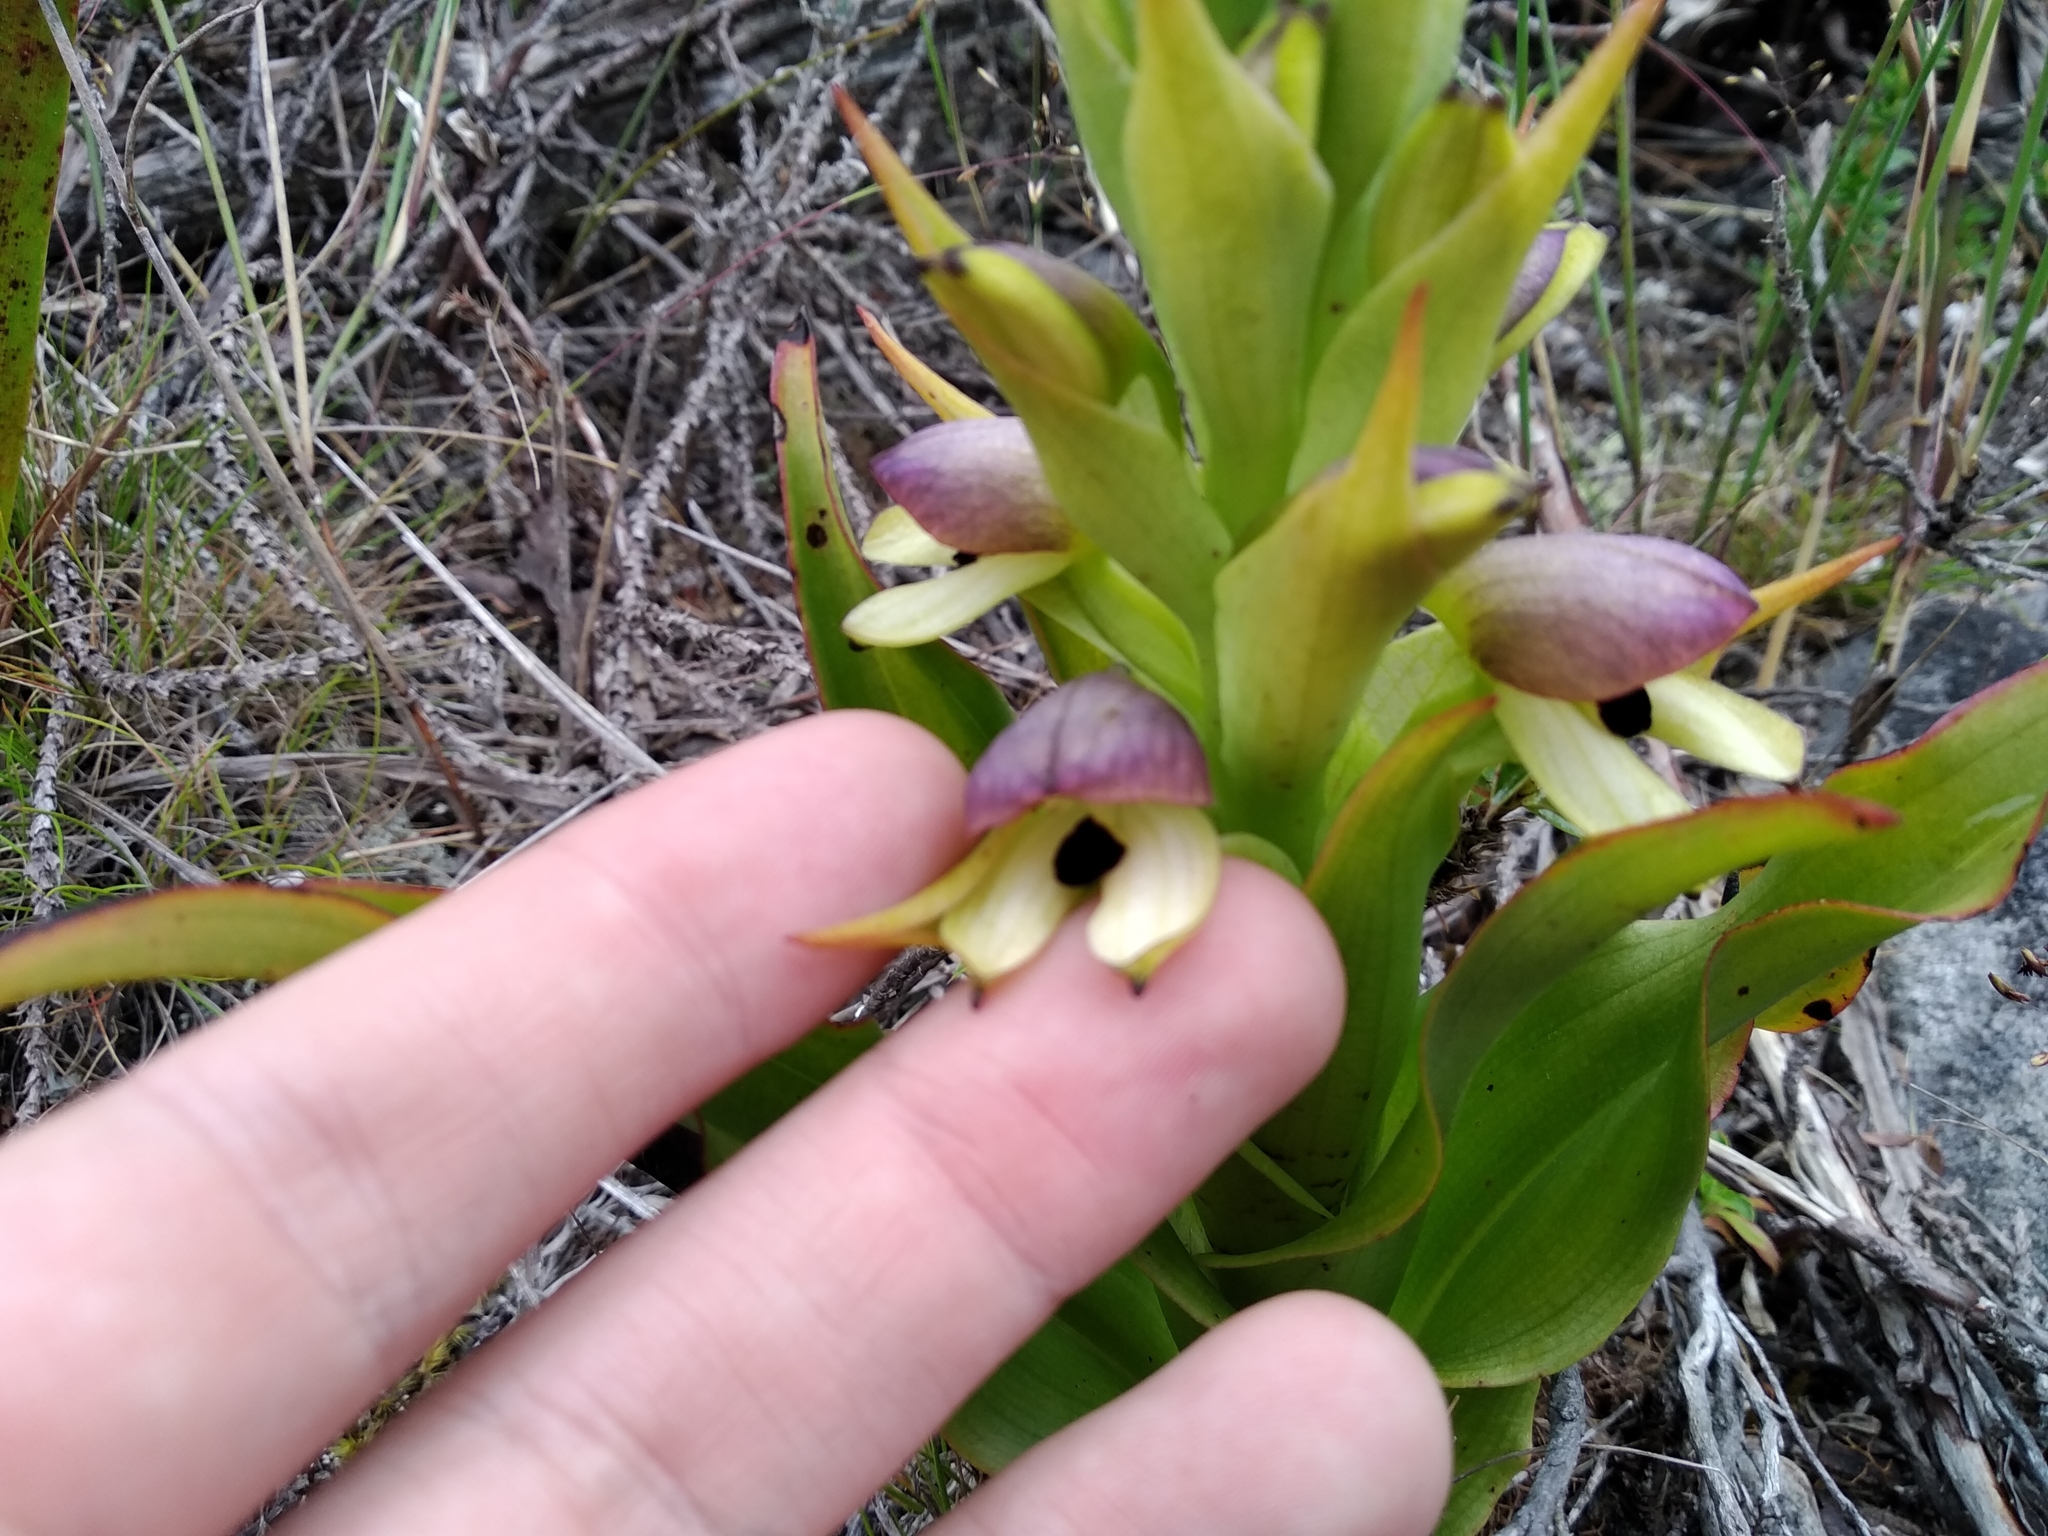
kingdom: Plantae
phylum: Tracheophyta
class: Liliopsida
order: Asparagales
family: Orchidaceae
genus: Disa
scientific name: Disa cornuta
